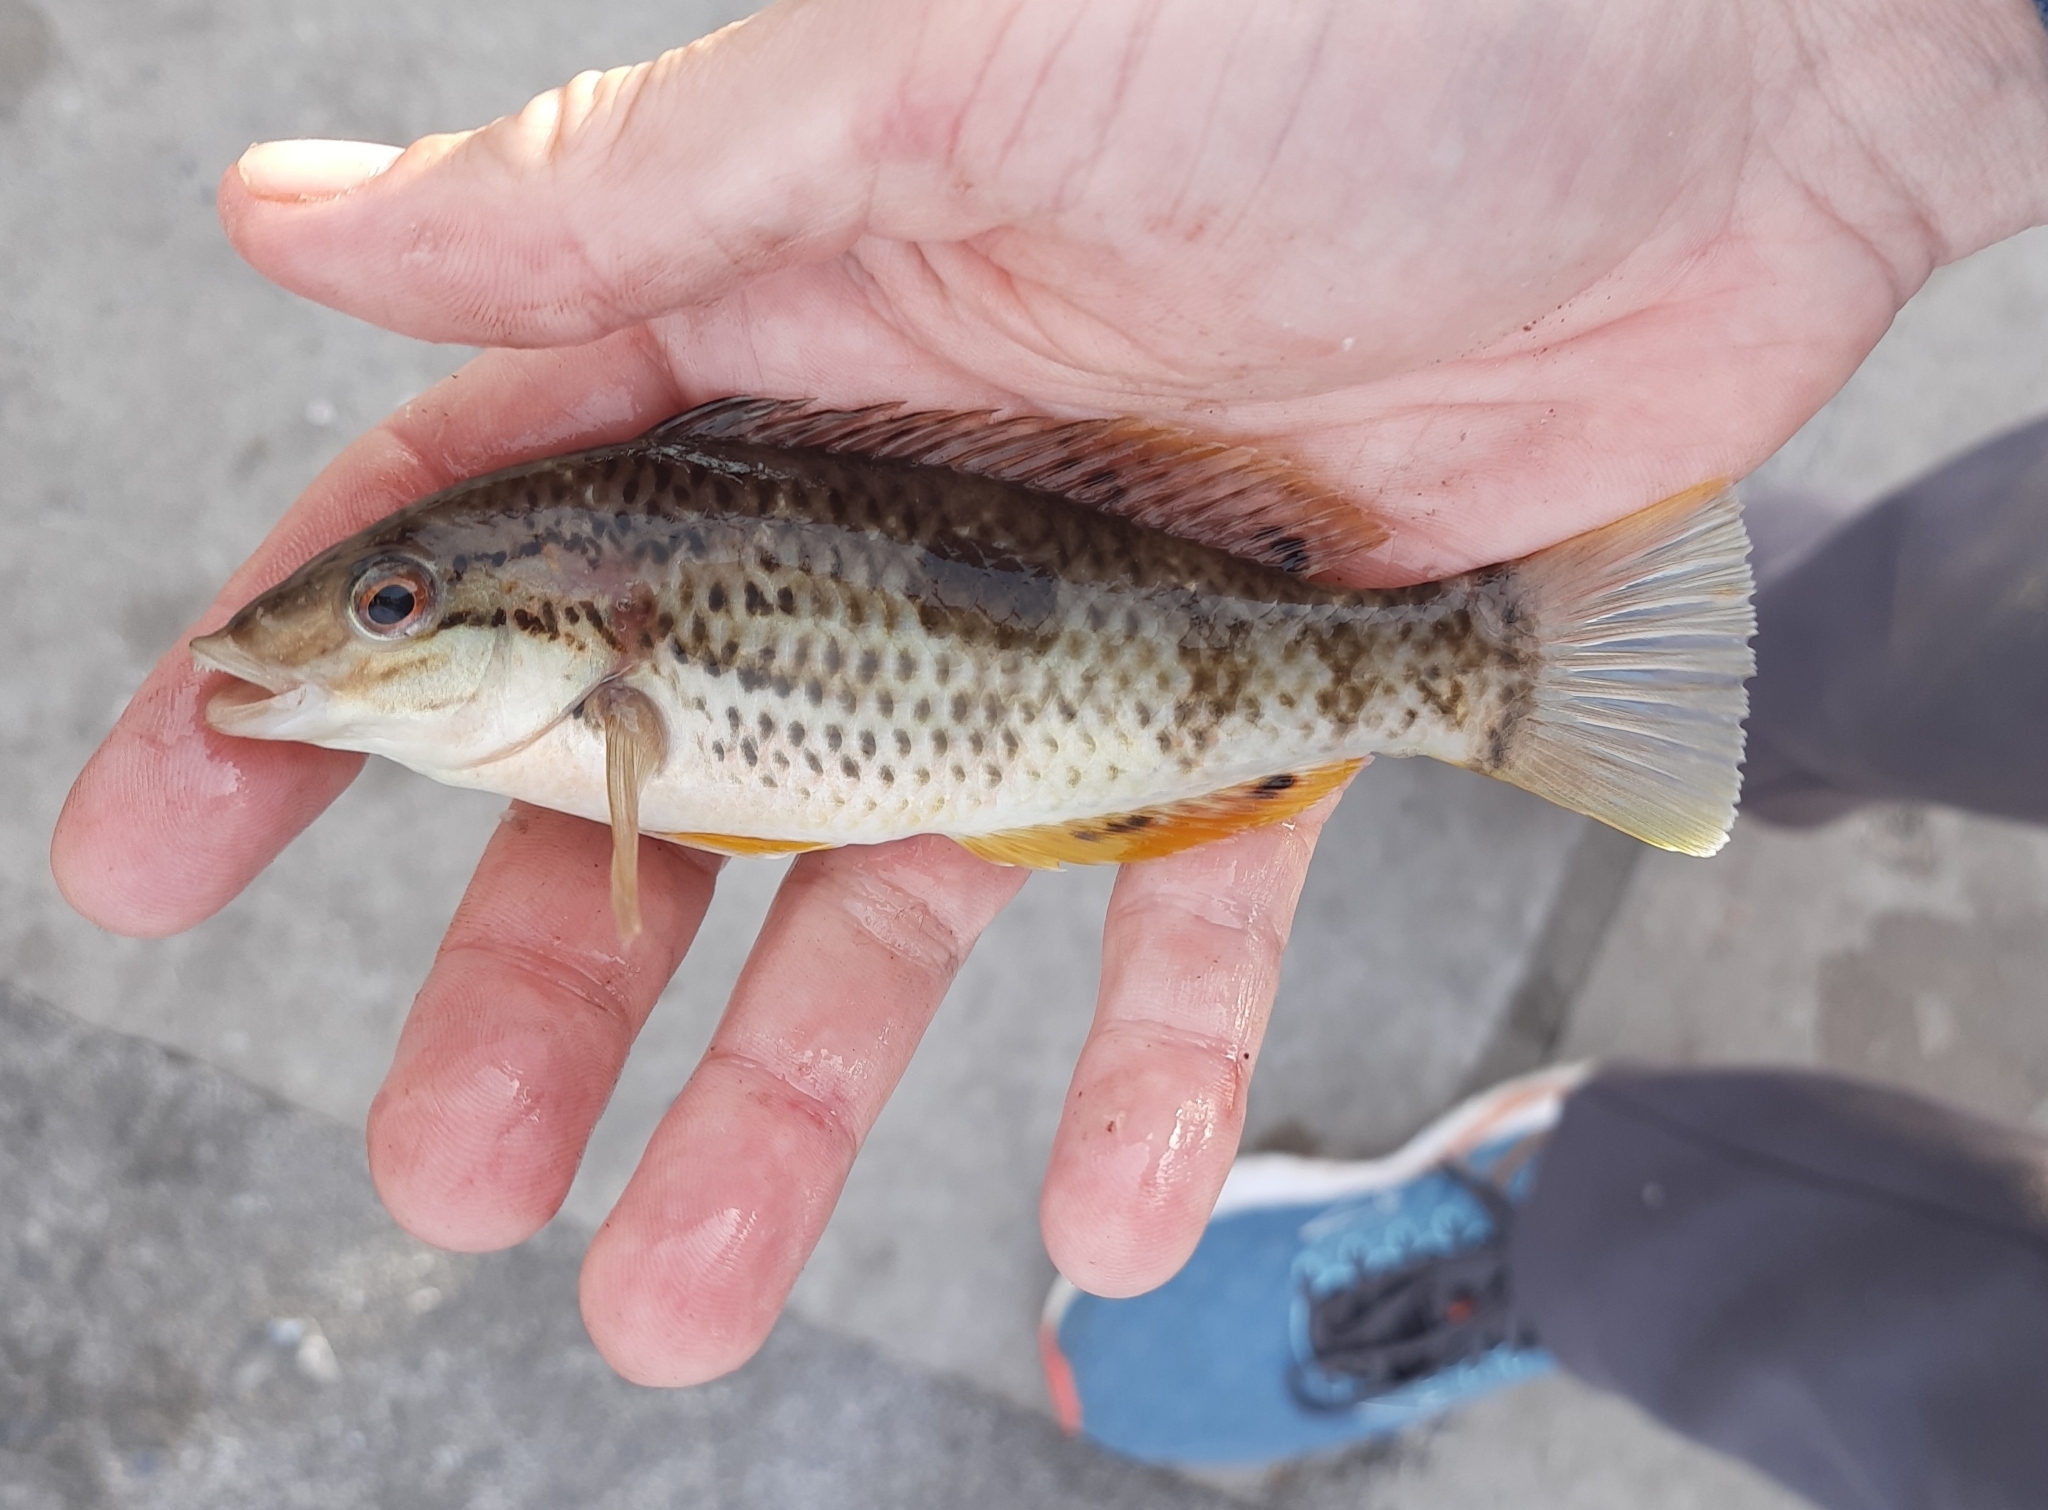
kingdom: Animalia
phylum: Chordata
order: Perciformes
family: Labridae
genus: Notolabrus
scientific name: Notolabrus celidotus
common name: Spotty
